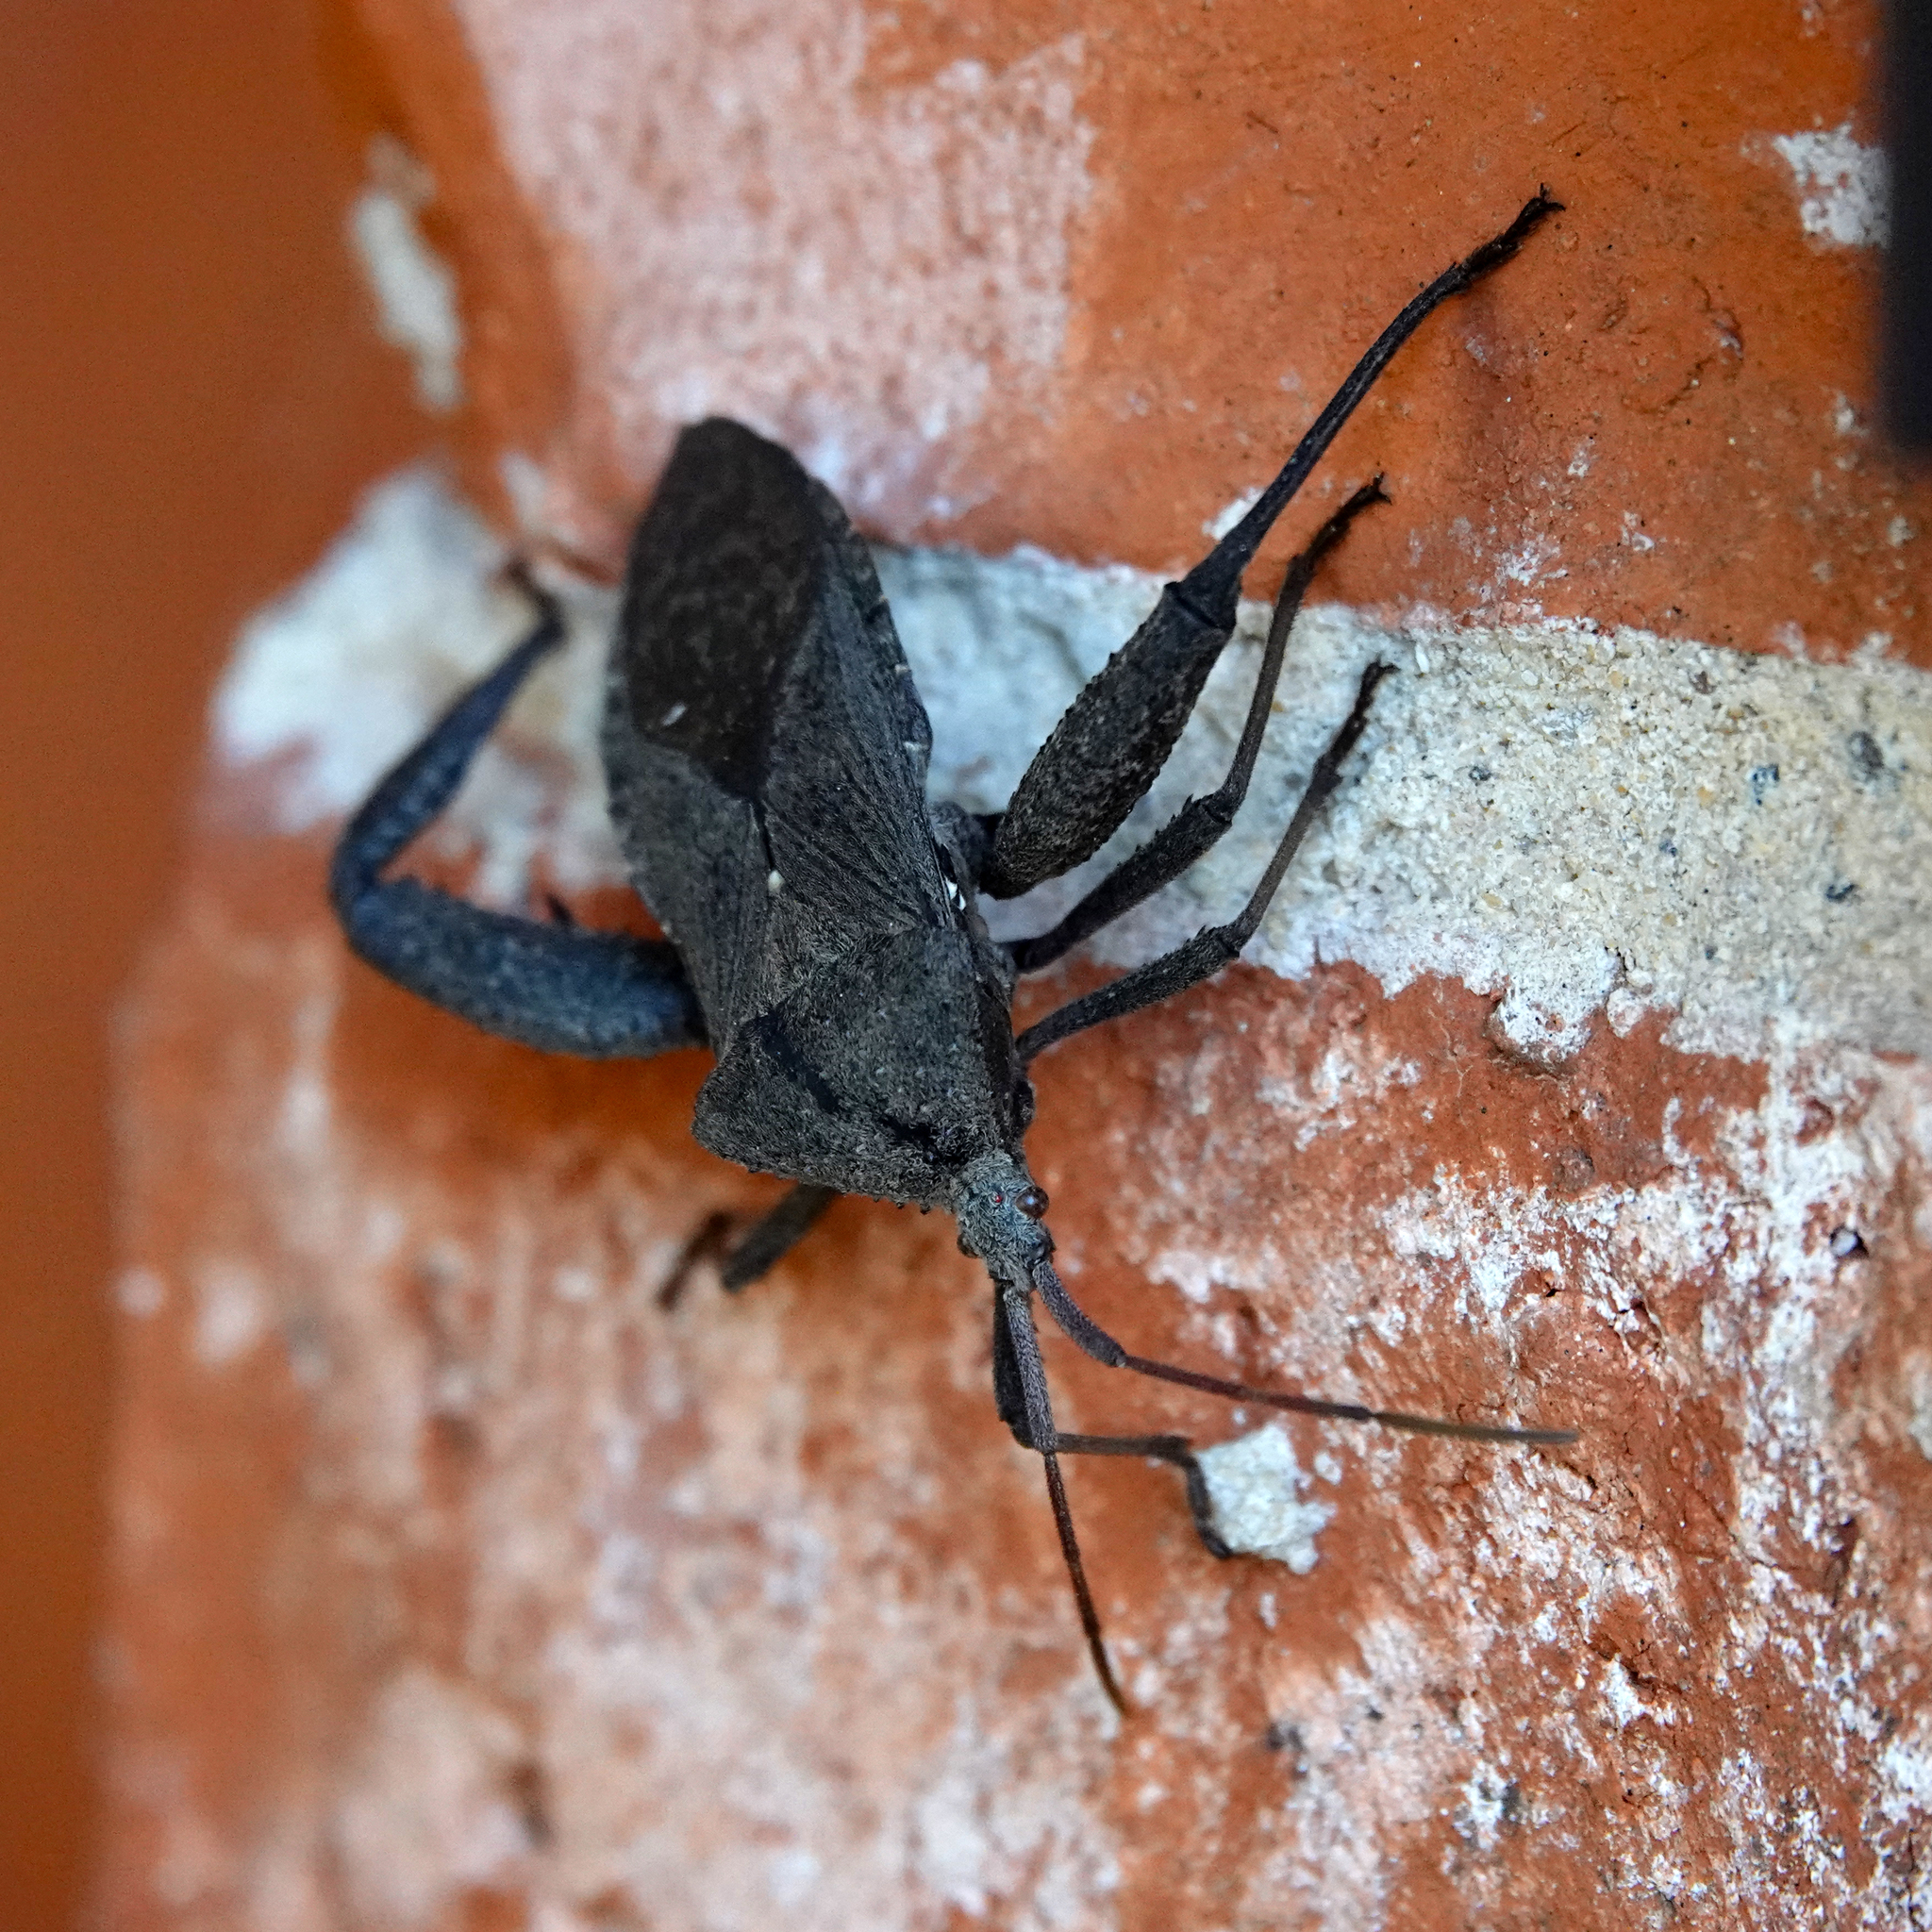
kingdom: Animalia
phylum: Arthropoda
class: Insecta
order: Hemiptera
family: Coreidae
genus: Acanthocephala
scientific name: Acanthocephala femorata
